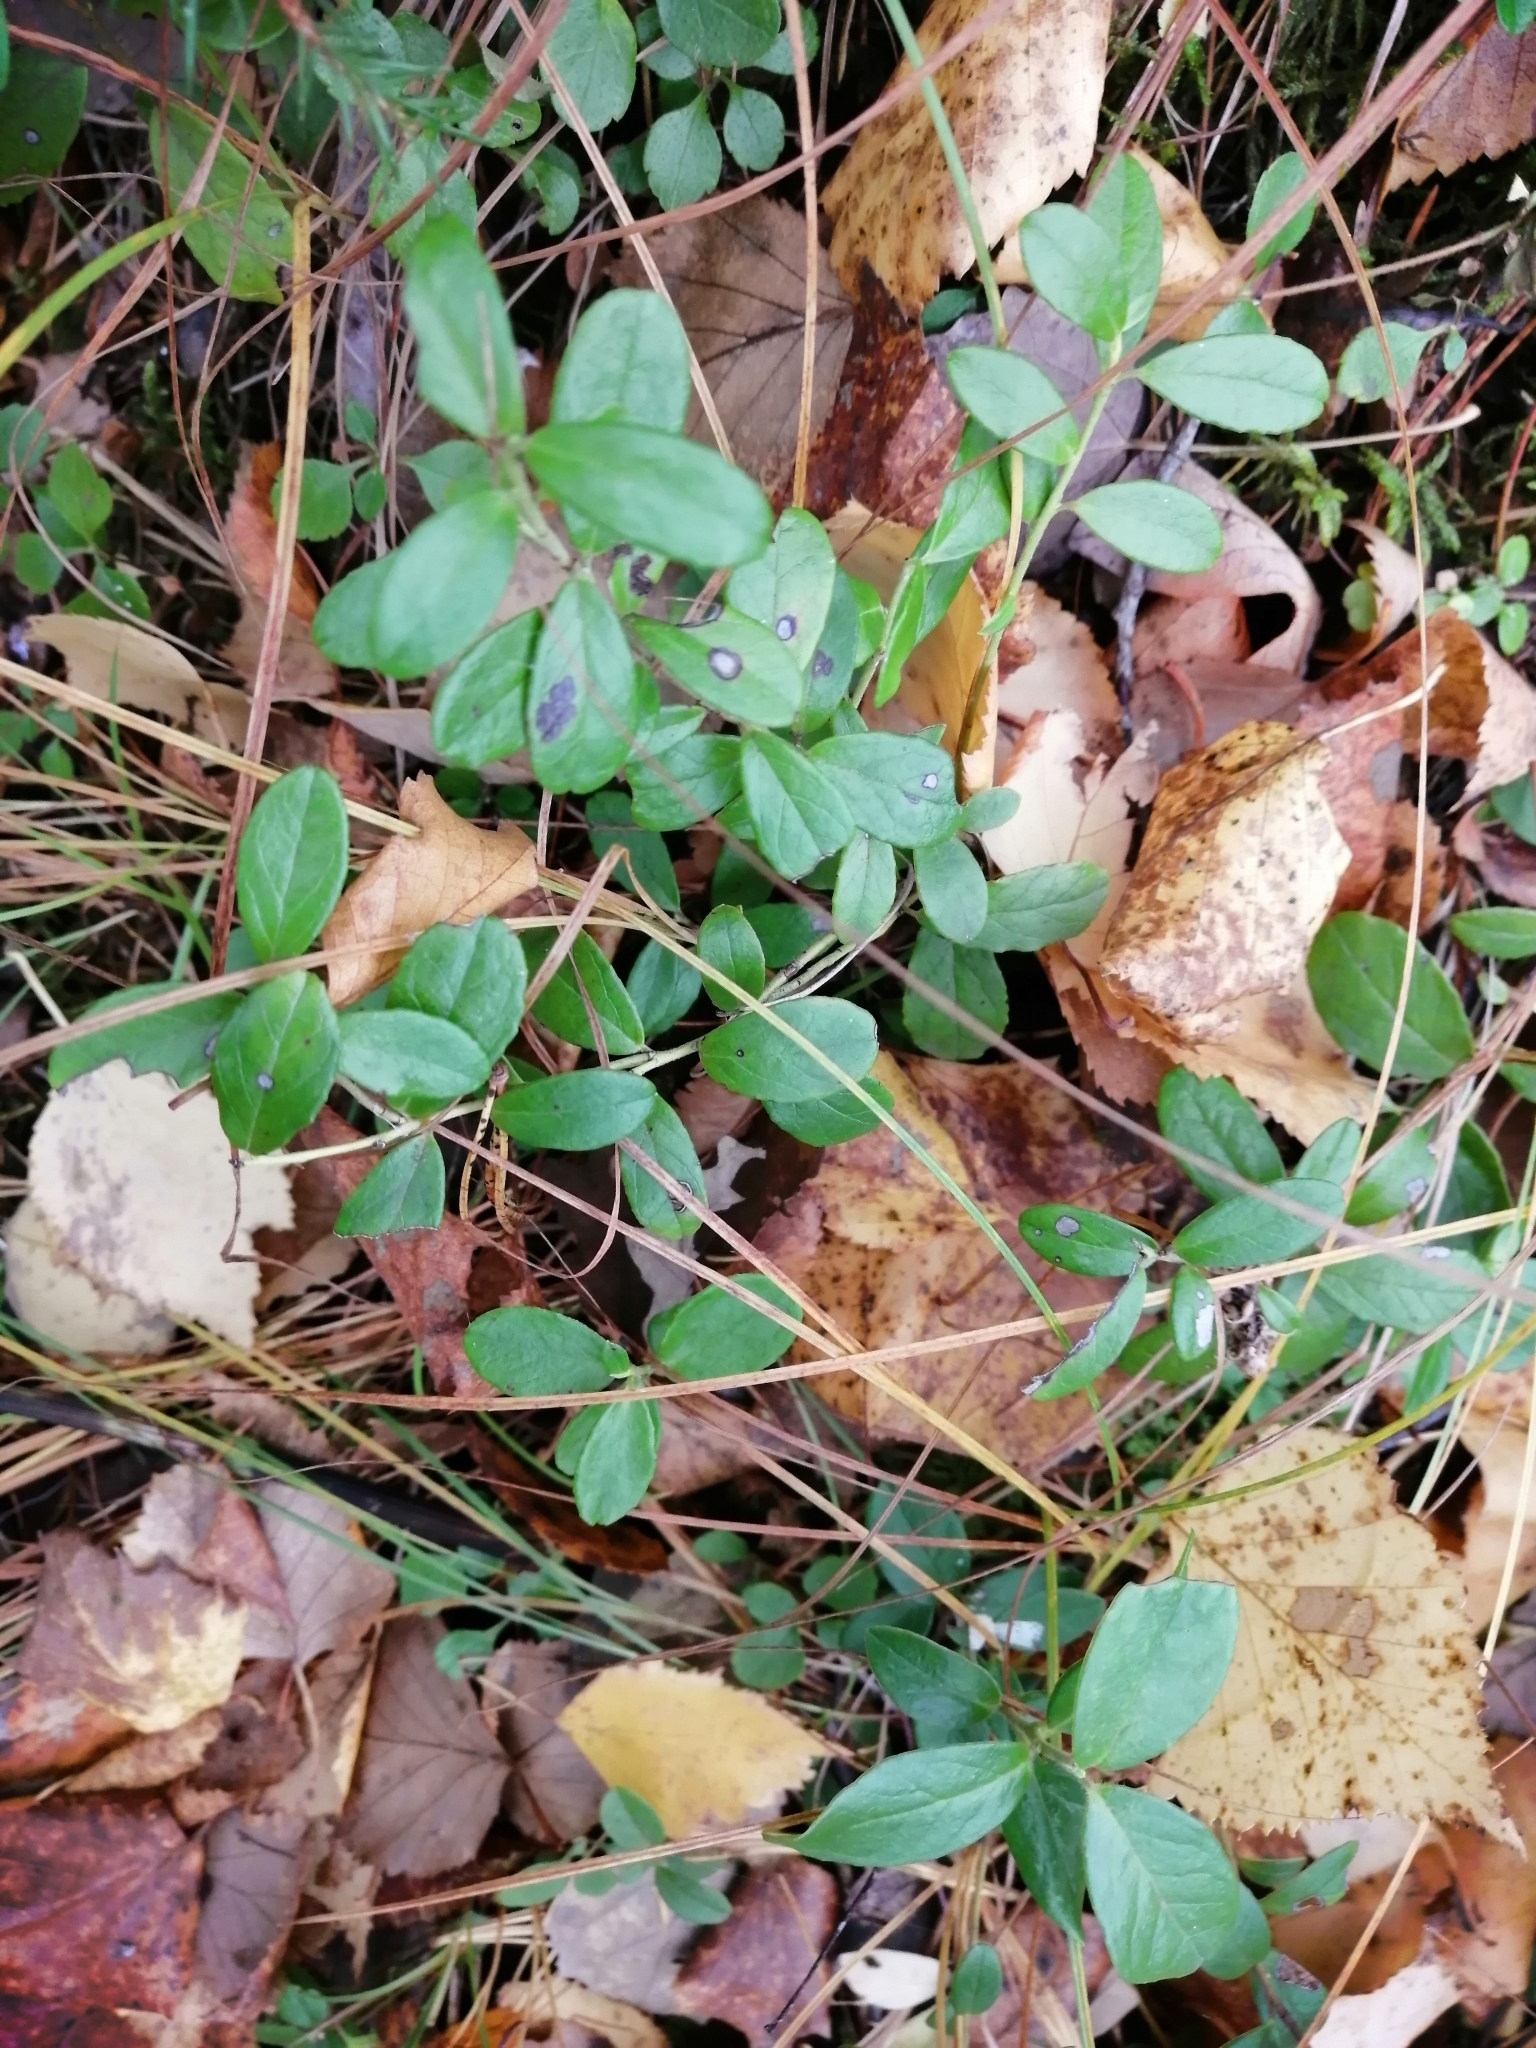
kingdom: Plantae
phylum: Tracheophyta
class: Magnoliopsida
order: Ericales
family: Ericaceae
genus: Vaccinium
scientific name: Vaccinium vitis-idaea
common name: Cowberry
